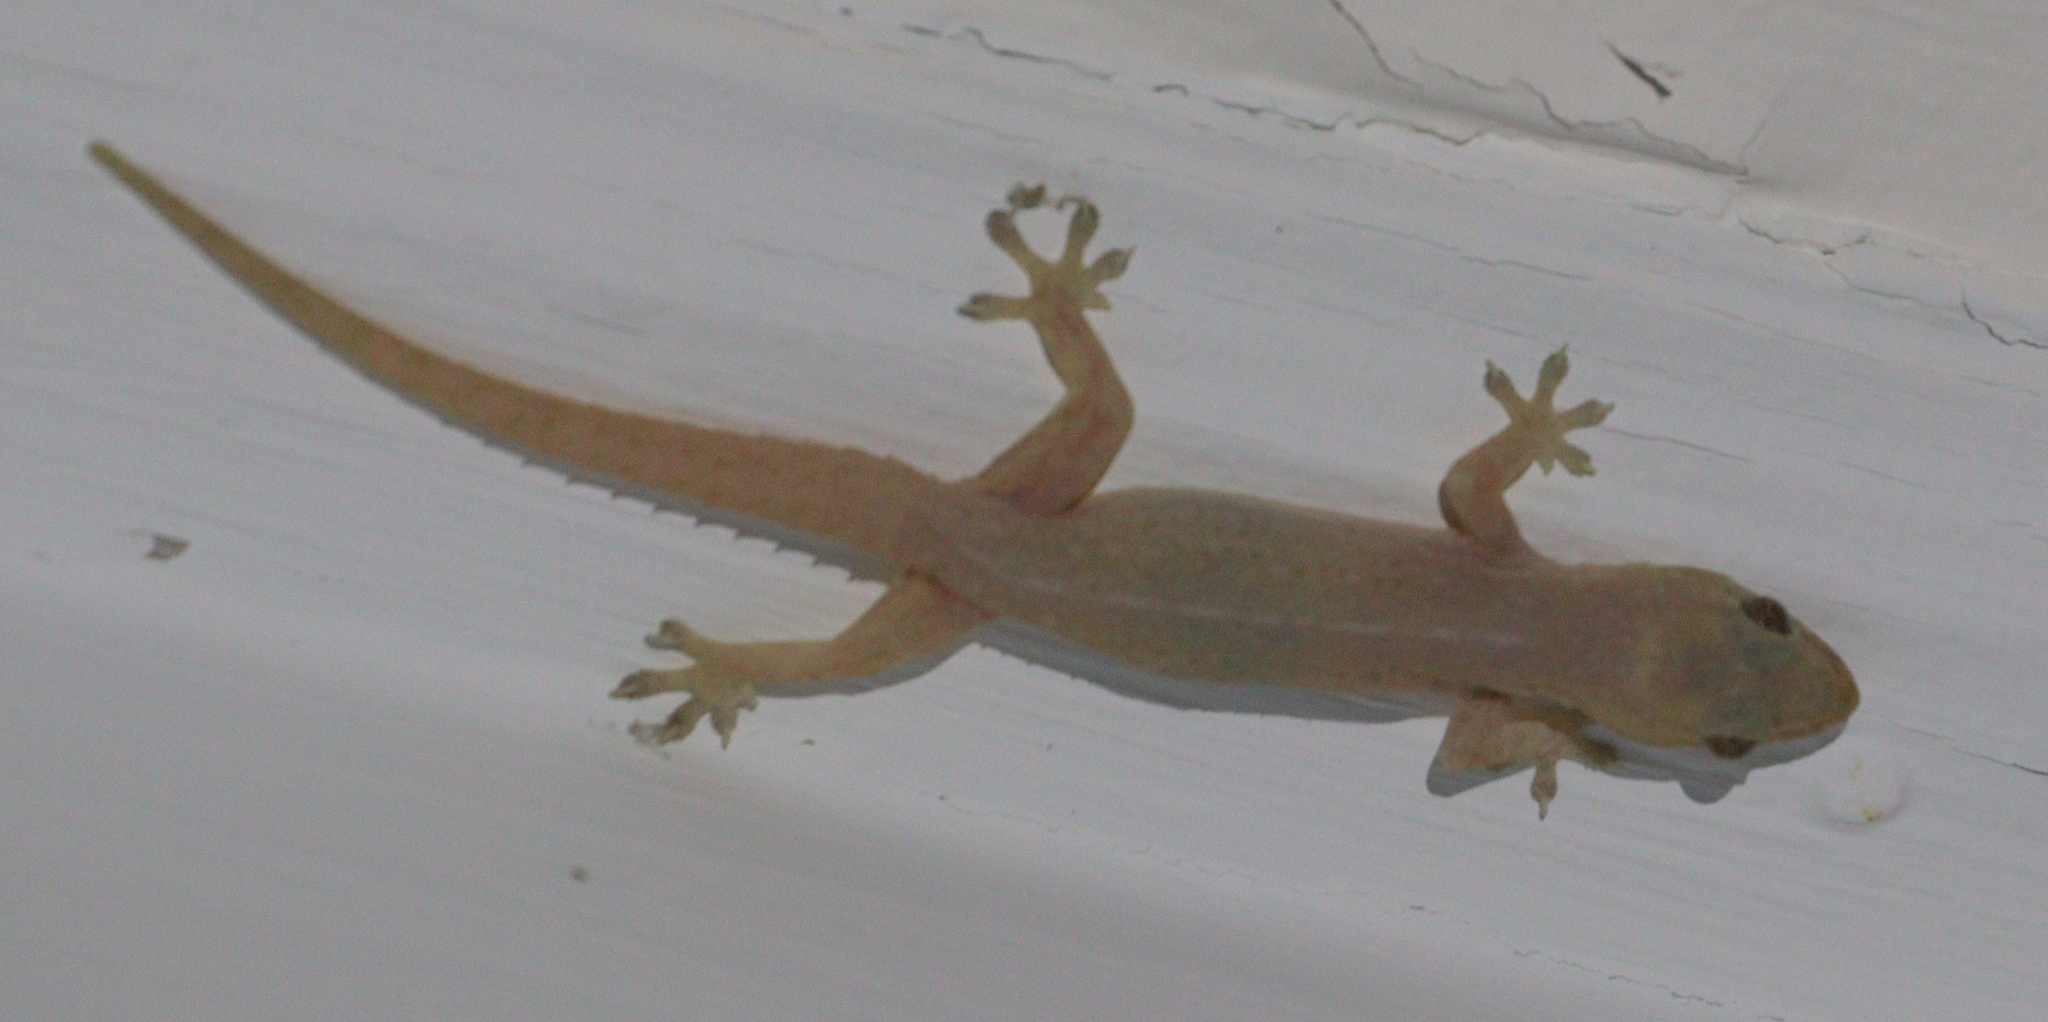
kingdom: Animalia
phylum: Chordata
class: Squamata
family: Gekkonidae
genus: Hemidactylus
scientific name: Hemidactylus frenatus
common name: Common house gecko
